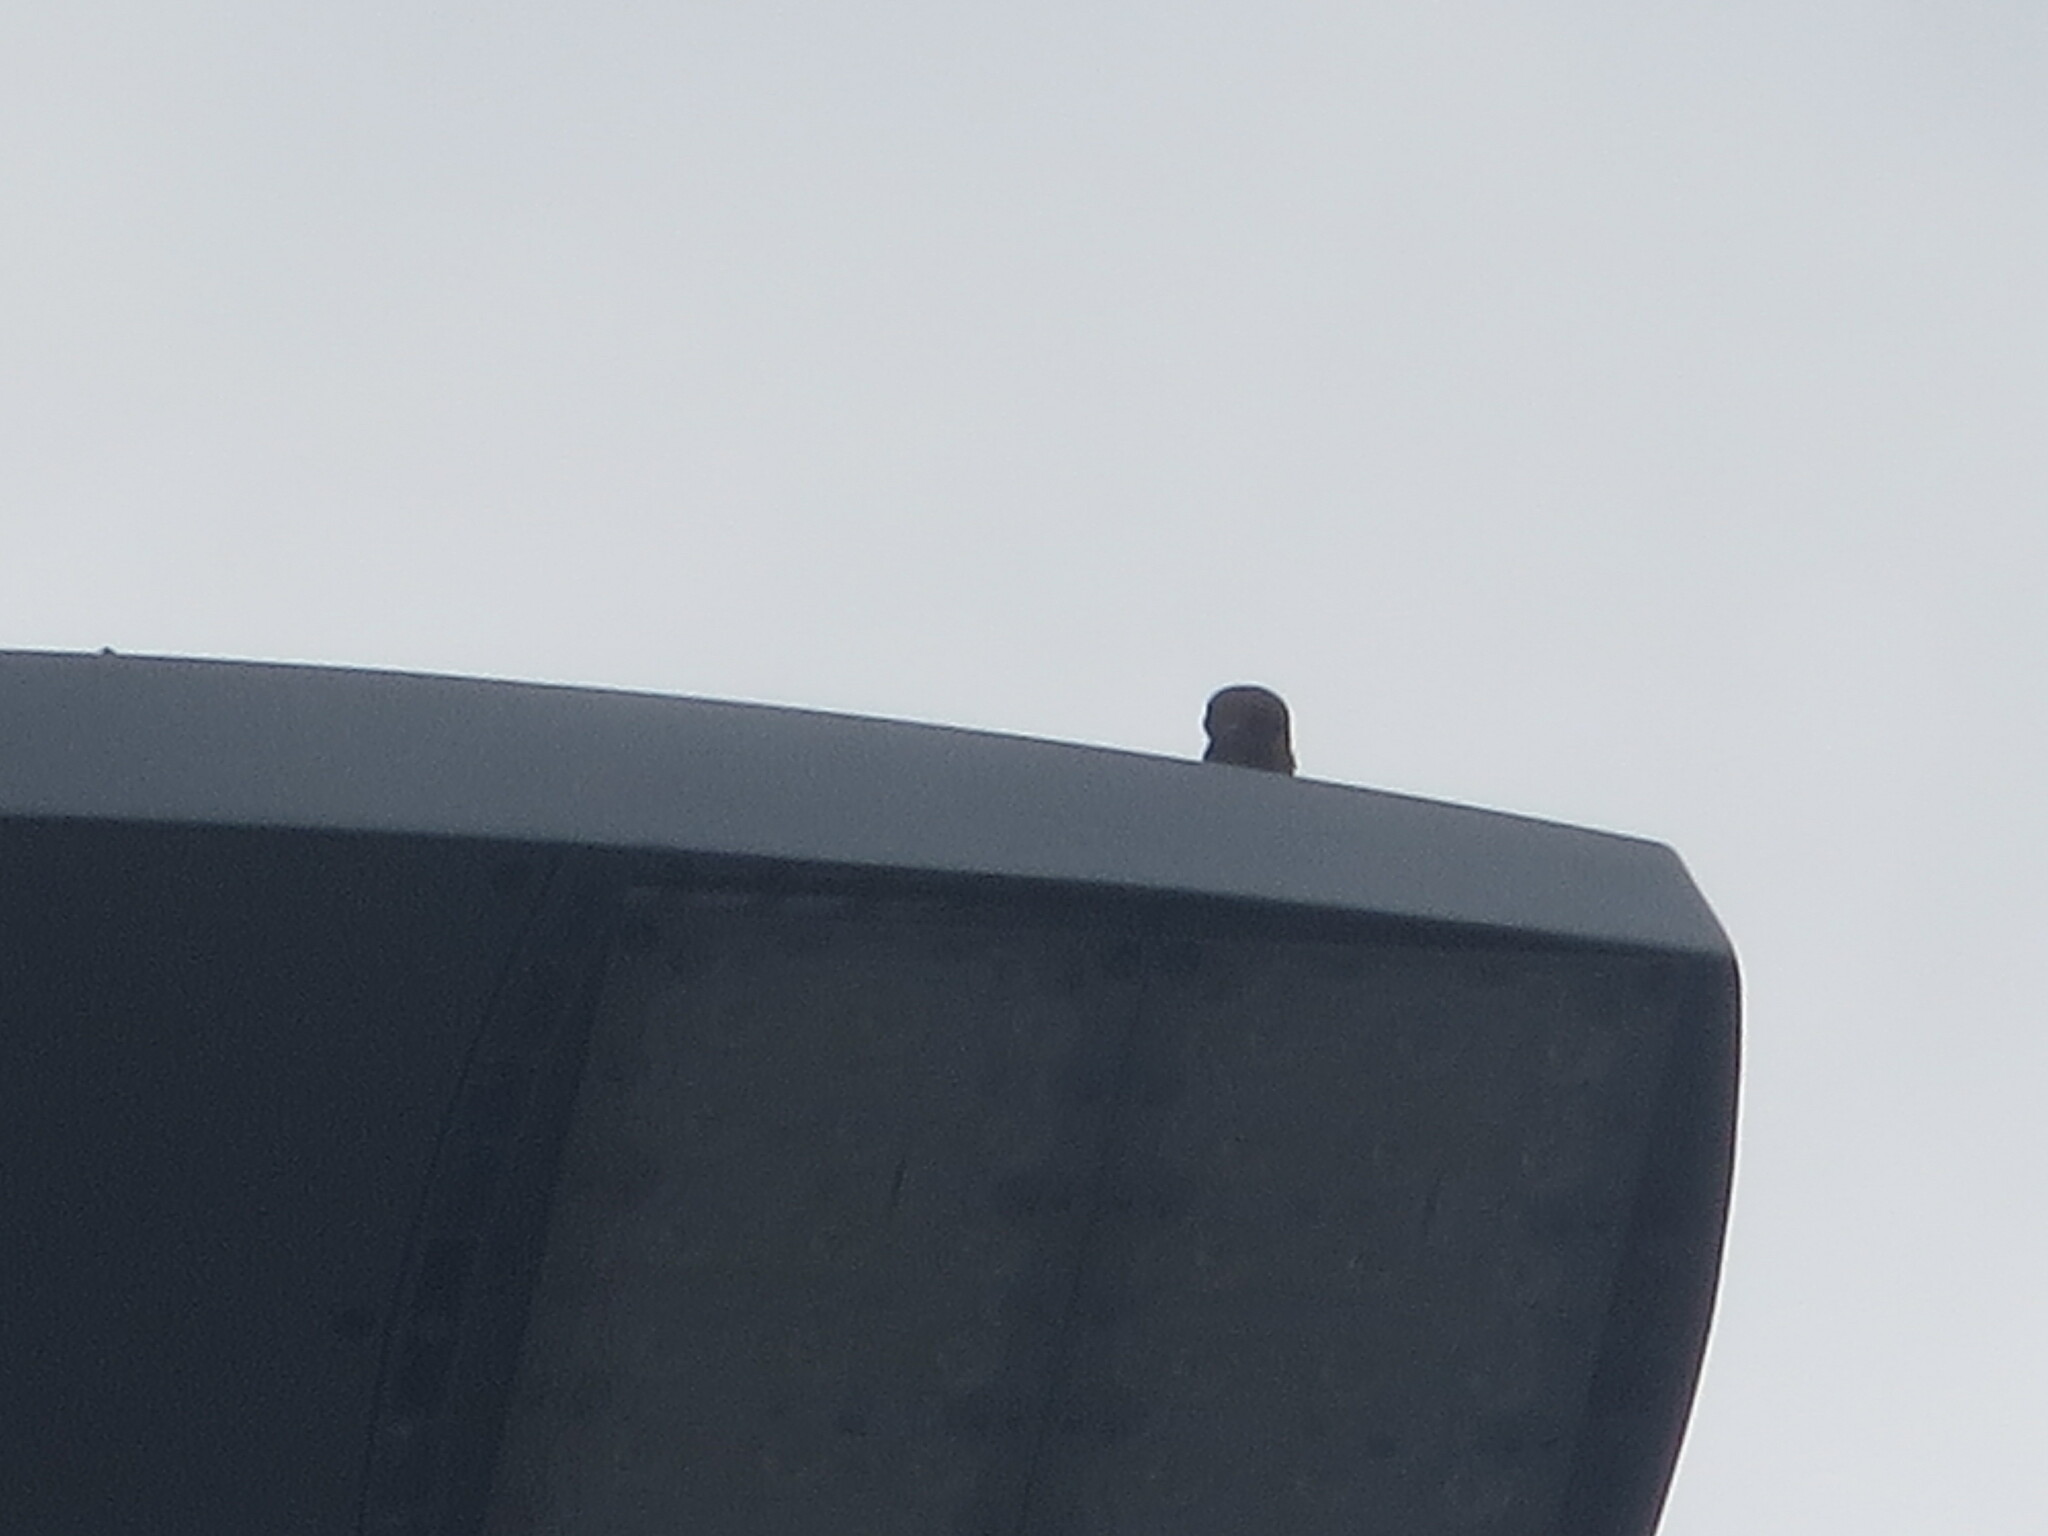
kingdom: Animalia
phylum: Chordata
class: Aves
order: Columbiformes
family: Columbidae
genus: Zenaida
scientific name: Zenaida macroura
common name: Mourning dove
